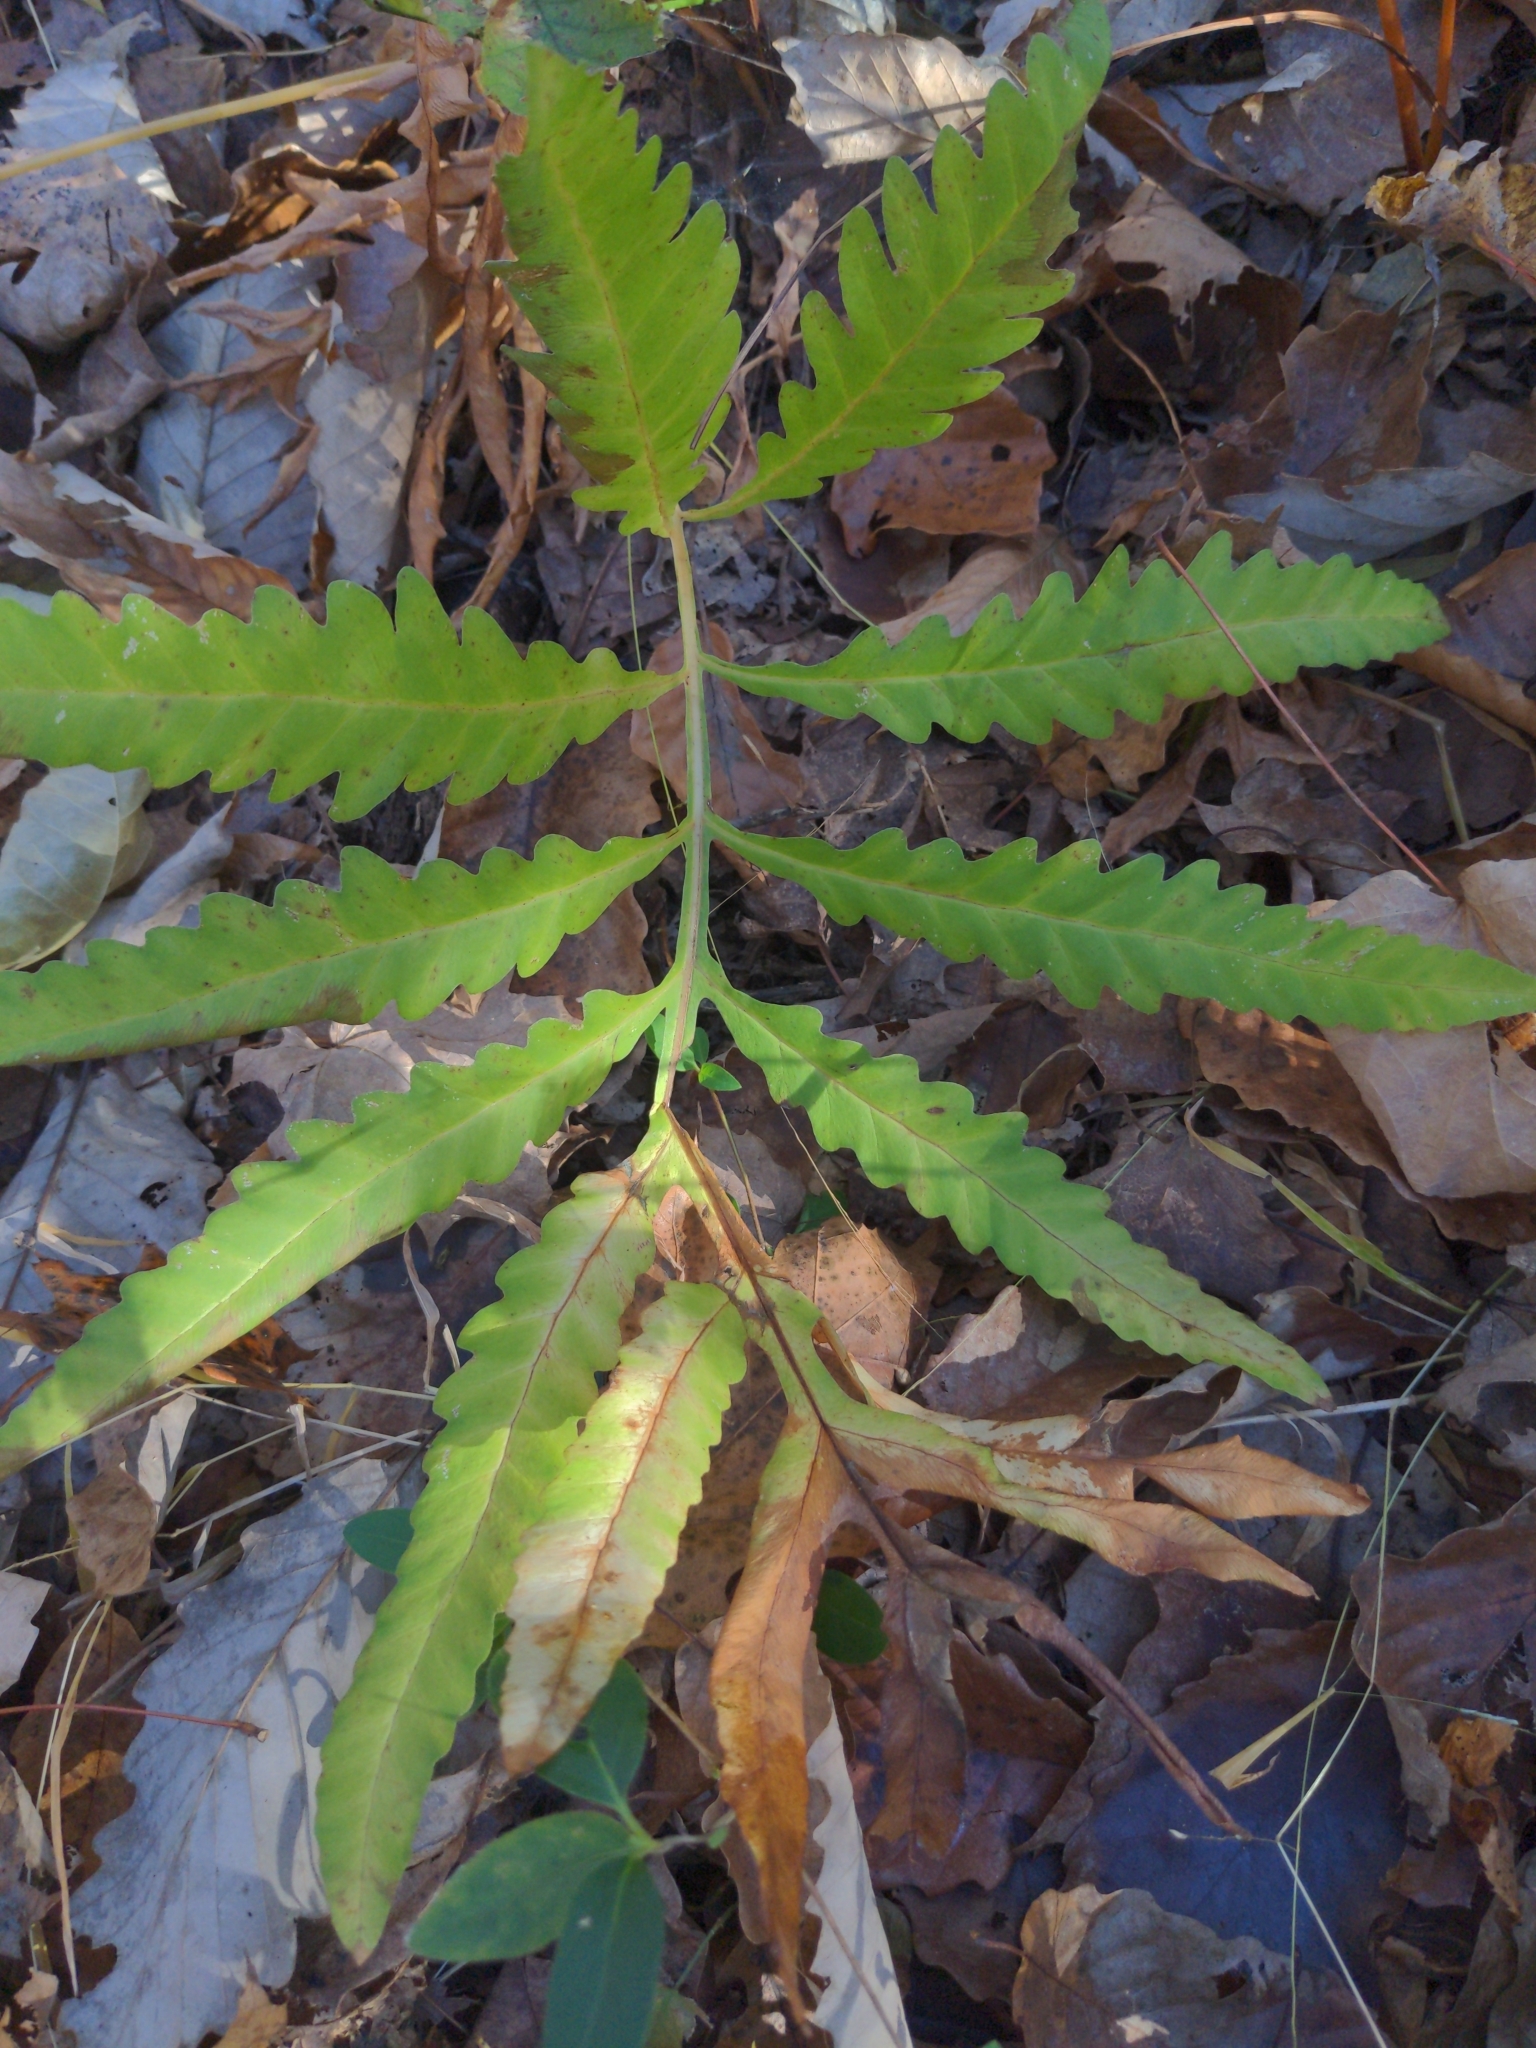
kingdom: Plantae
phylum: Tracheophyta
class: Polypodiopsida
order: Polypodiales
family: Onocleaceae
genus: Onoclea
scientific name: Onoclea sensibilis
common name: Sensitive fern
